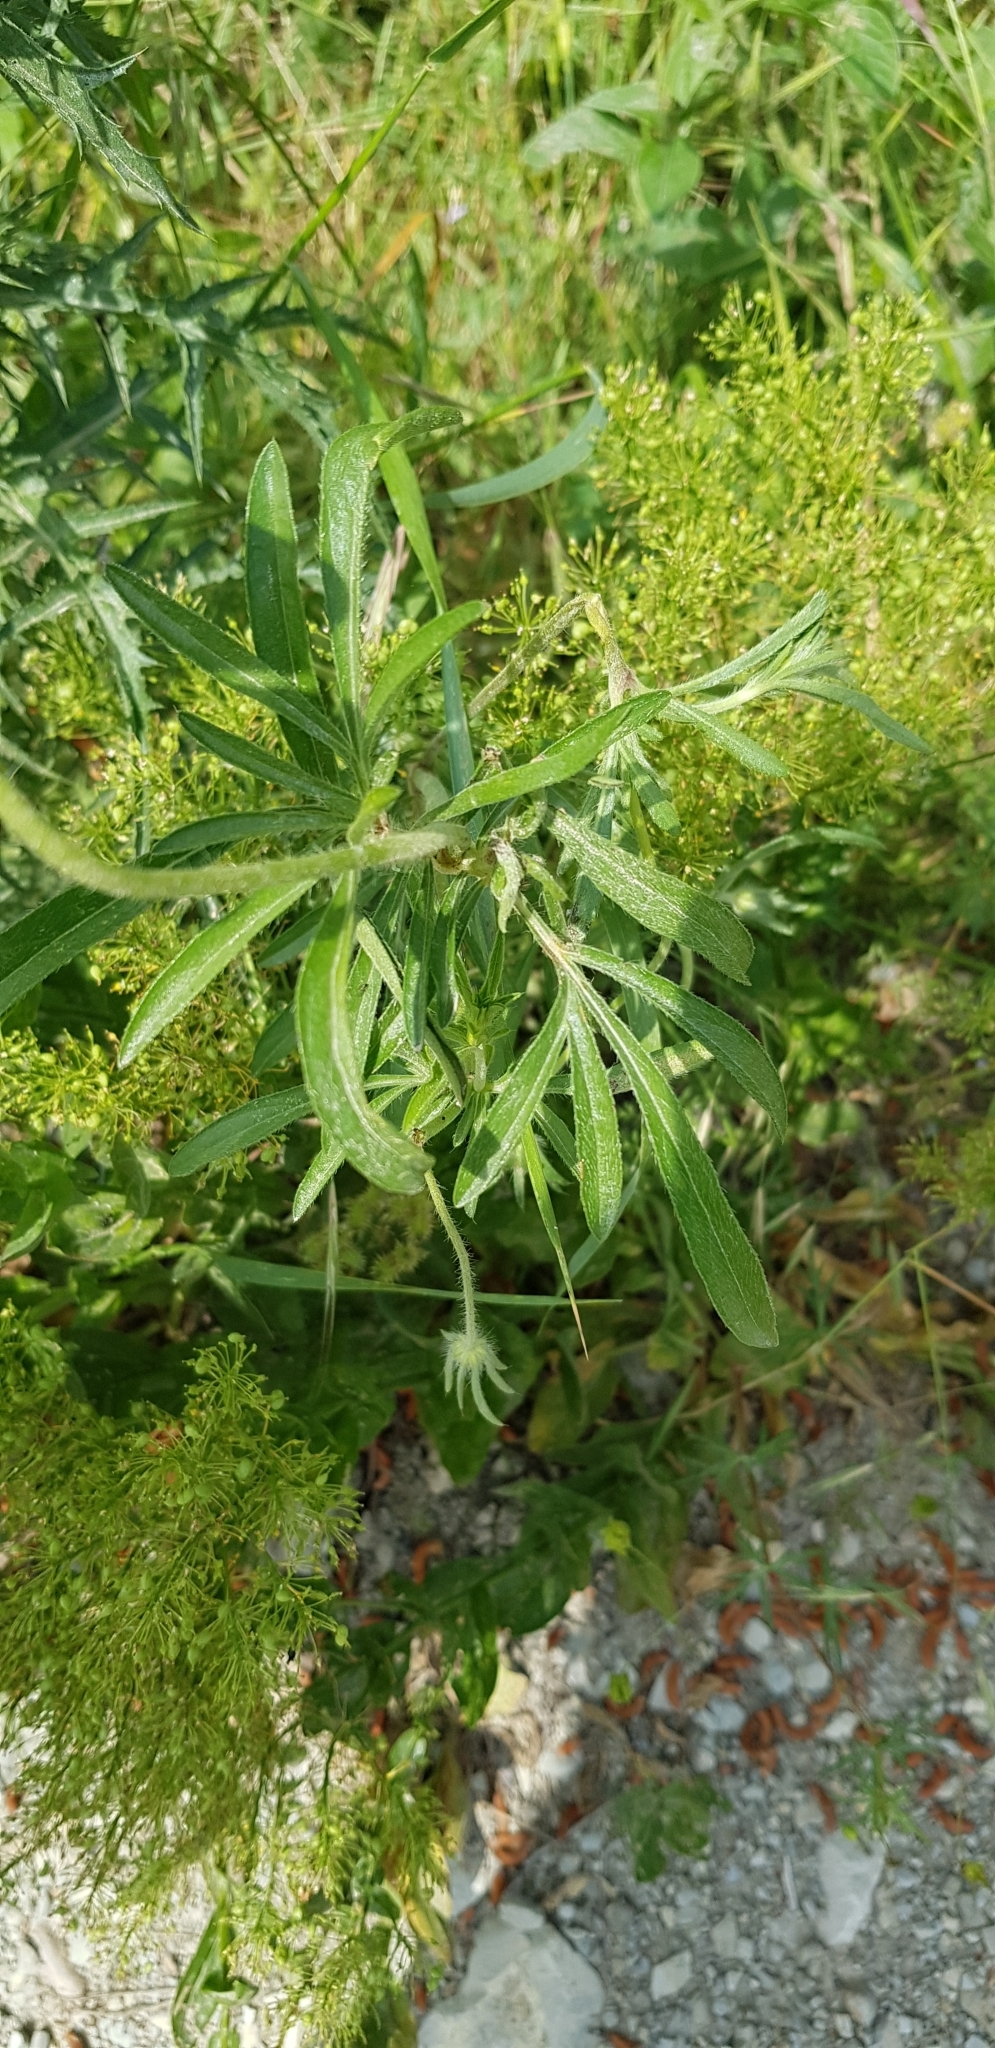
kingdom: Plantae
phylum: Tracheophyta
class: Magnoliopsida
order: Dipsacales
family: Caprifoliaceae
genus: Lomelosia
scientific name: Lomelosia micrantha
